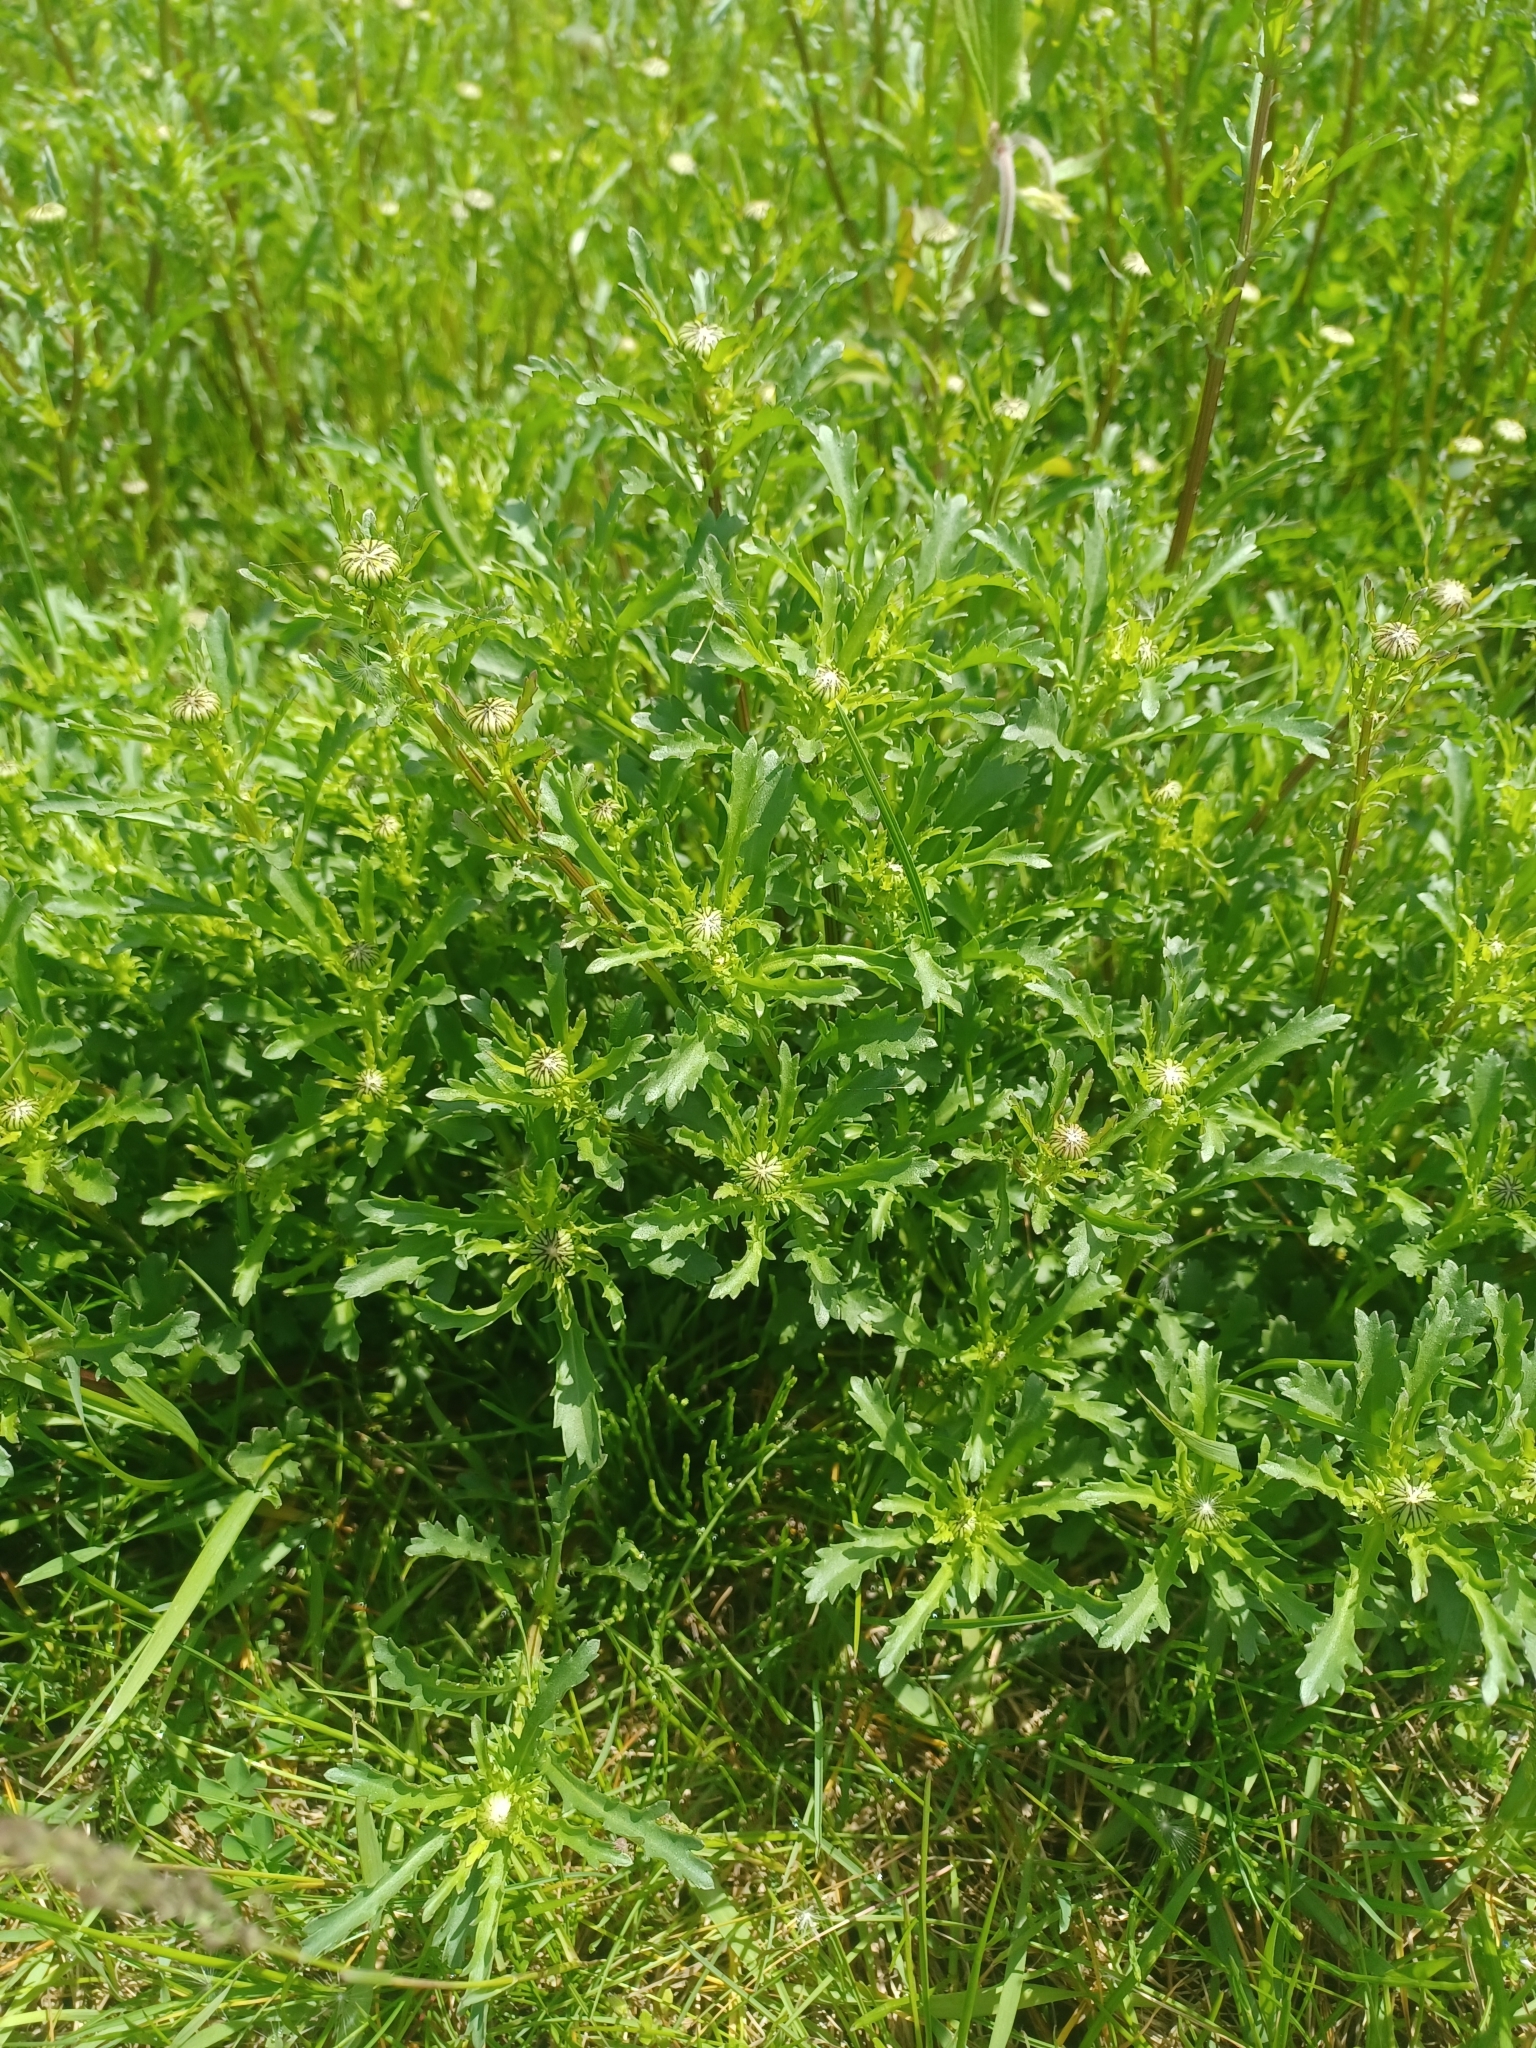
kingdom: Plantae
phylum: Tracheophyta
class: Magnoliopsida
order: Asterales
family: Asteraceae
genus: Leucanthemum
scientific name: Leucanthemum vulgare
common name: Oxeye daisy
